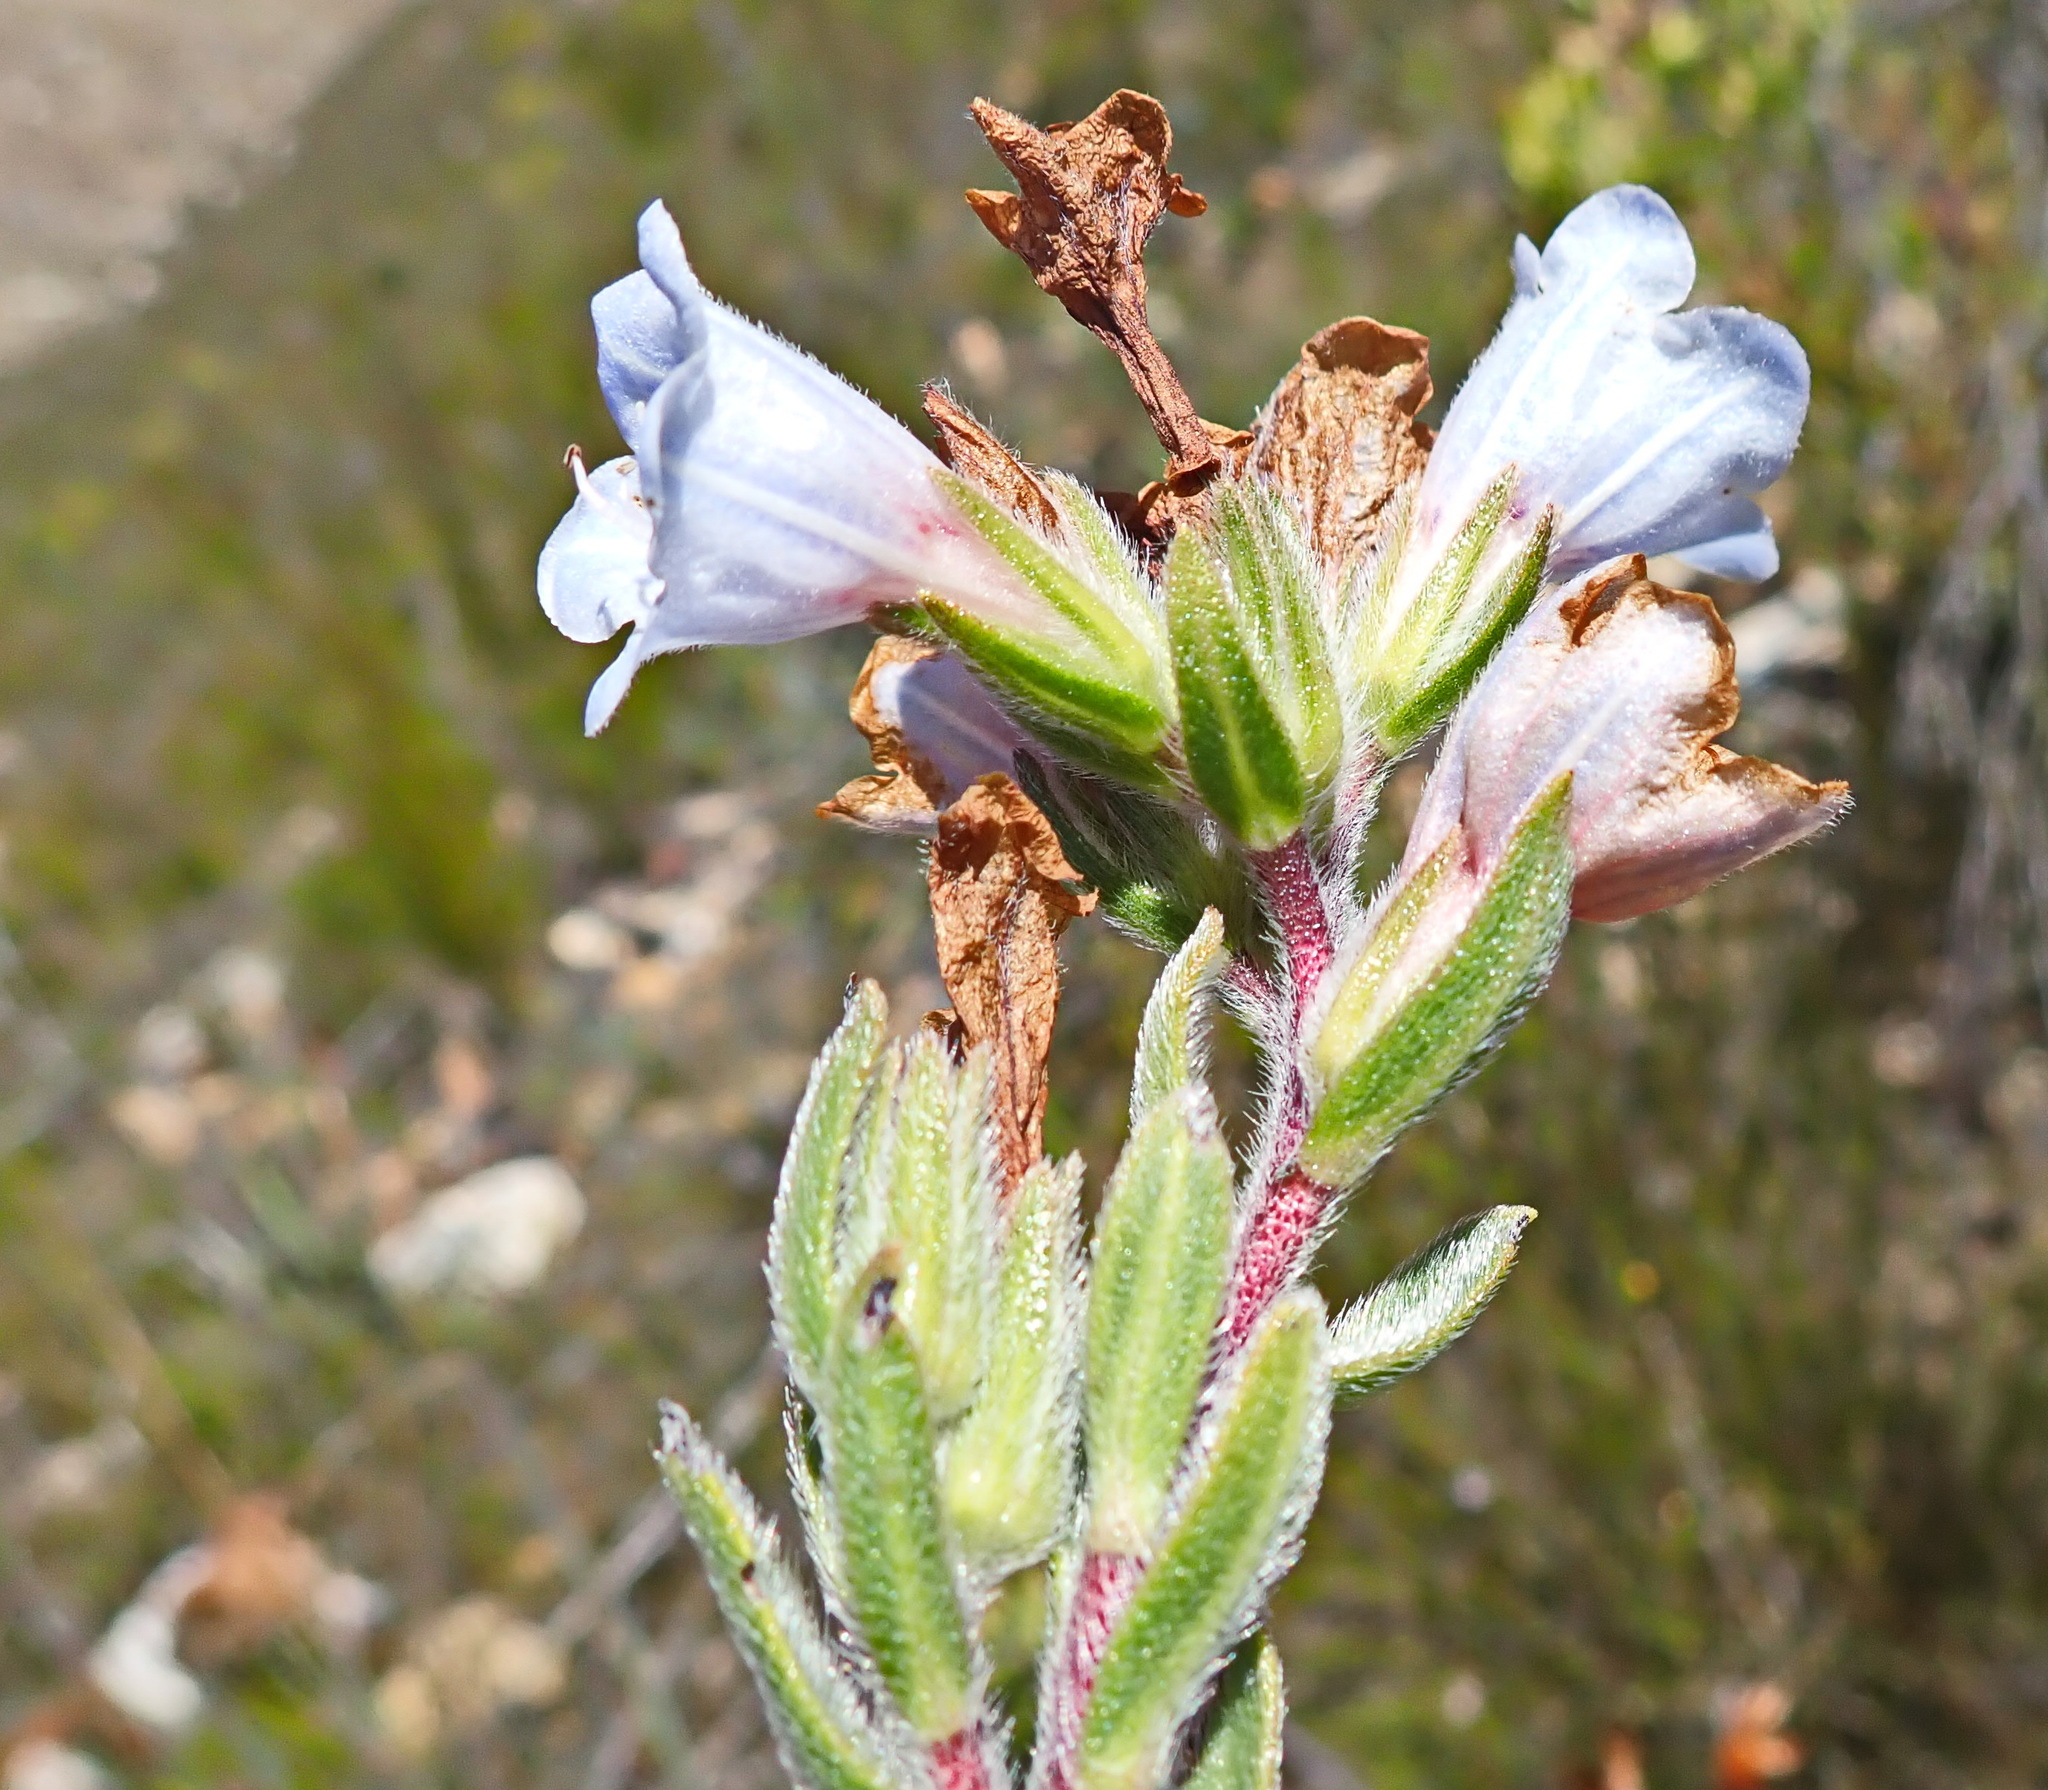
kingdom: Plantae
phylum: Tracheophyta
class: Magnoliopsida
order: Boraginales
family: Boraginaceae
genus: Lobostemon
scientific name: Lobostemon fruticosus
